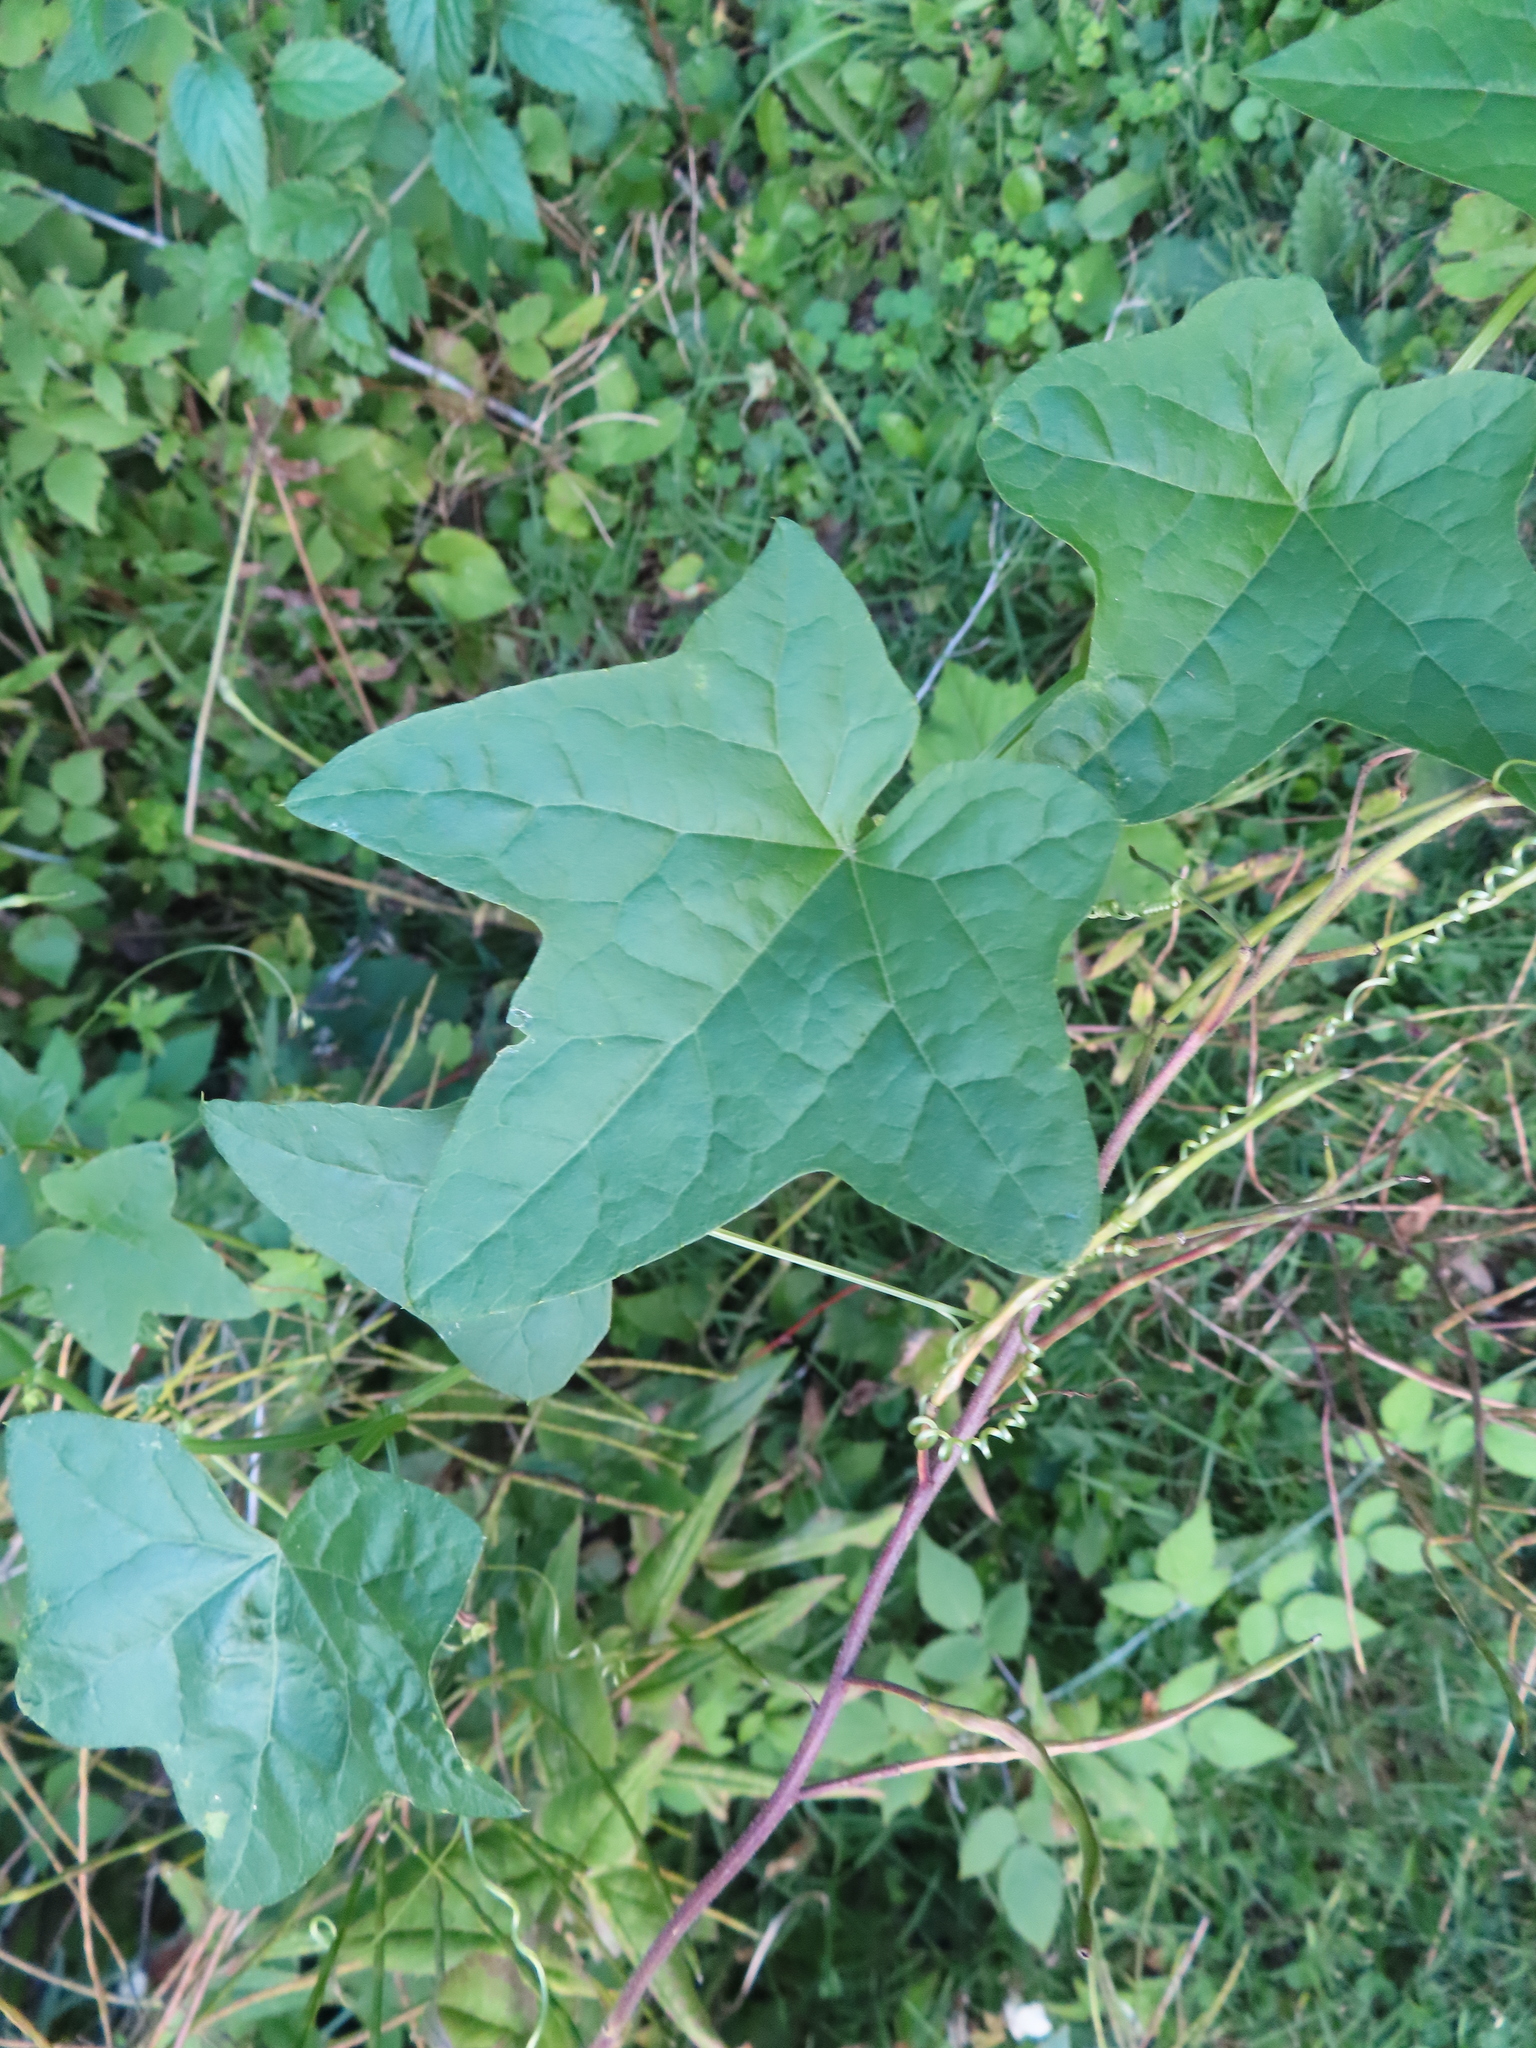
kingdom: Plantae
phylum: Tracheophyta
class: Magnoliopsida
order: Cucurbitales
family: Cucurbitaceae
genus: Echinocystis
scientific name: Echinocystis lobata
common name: Wild cucumber
